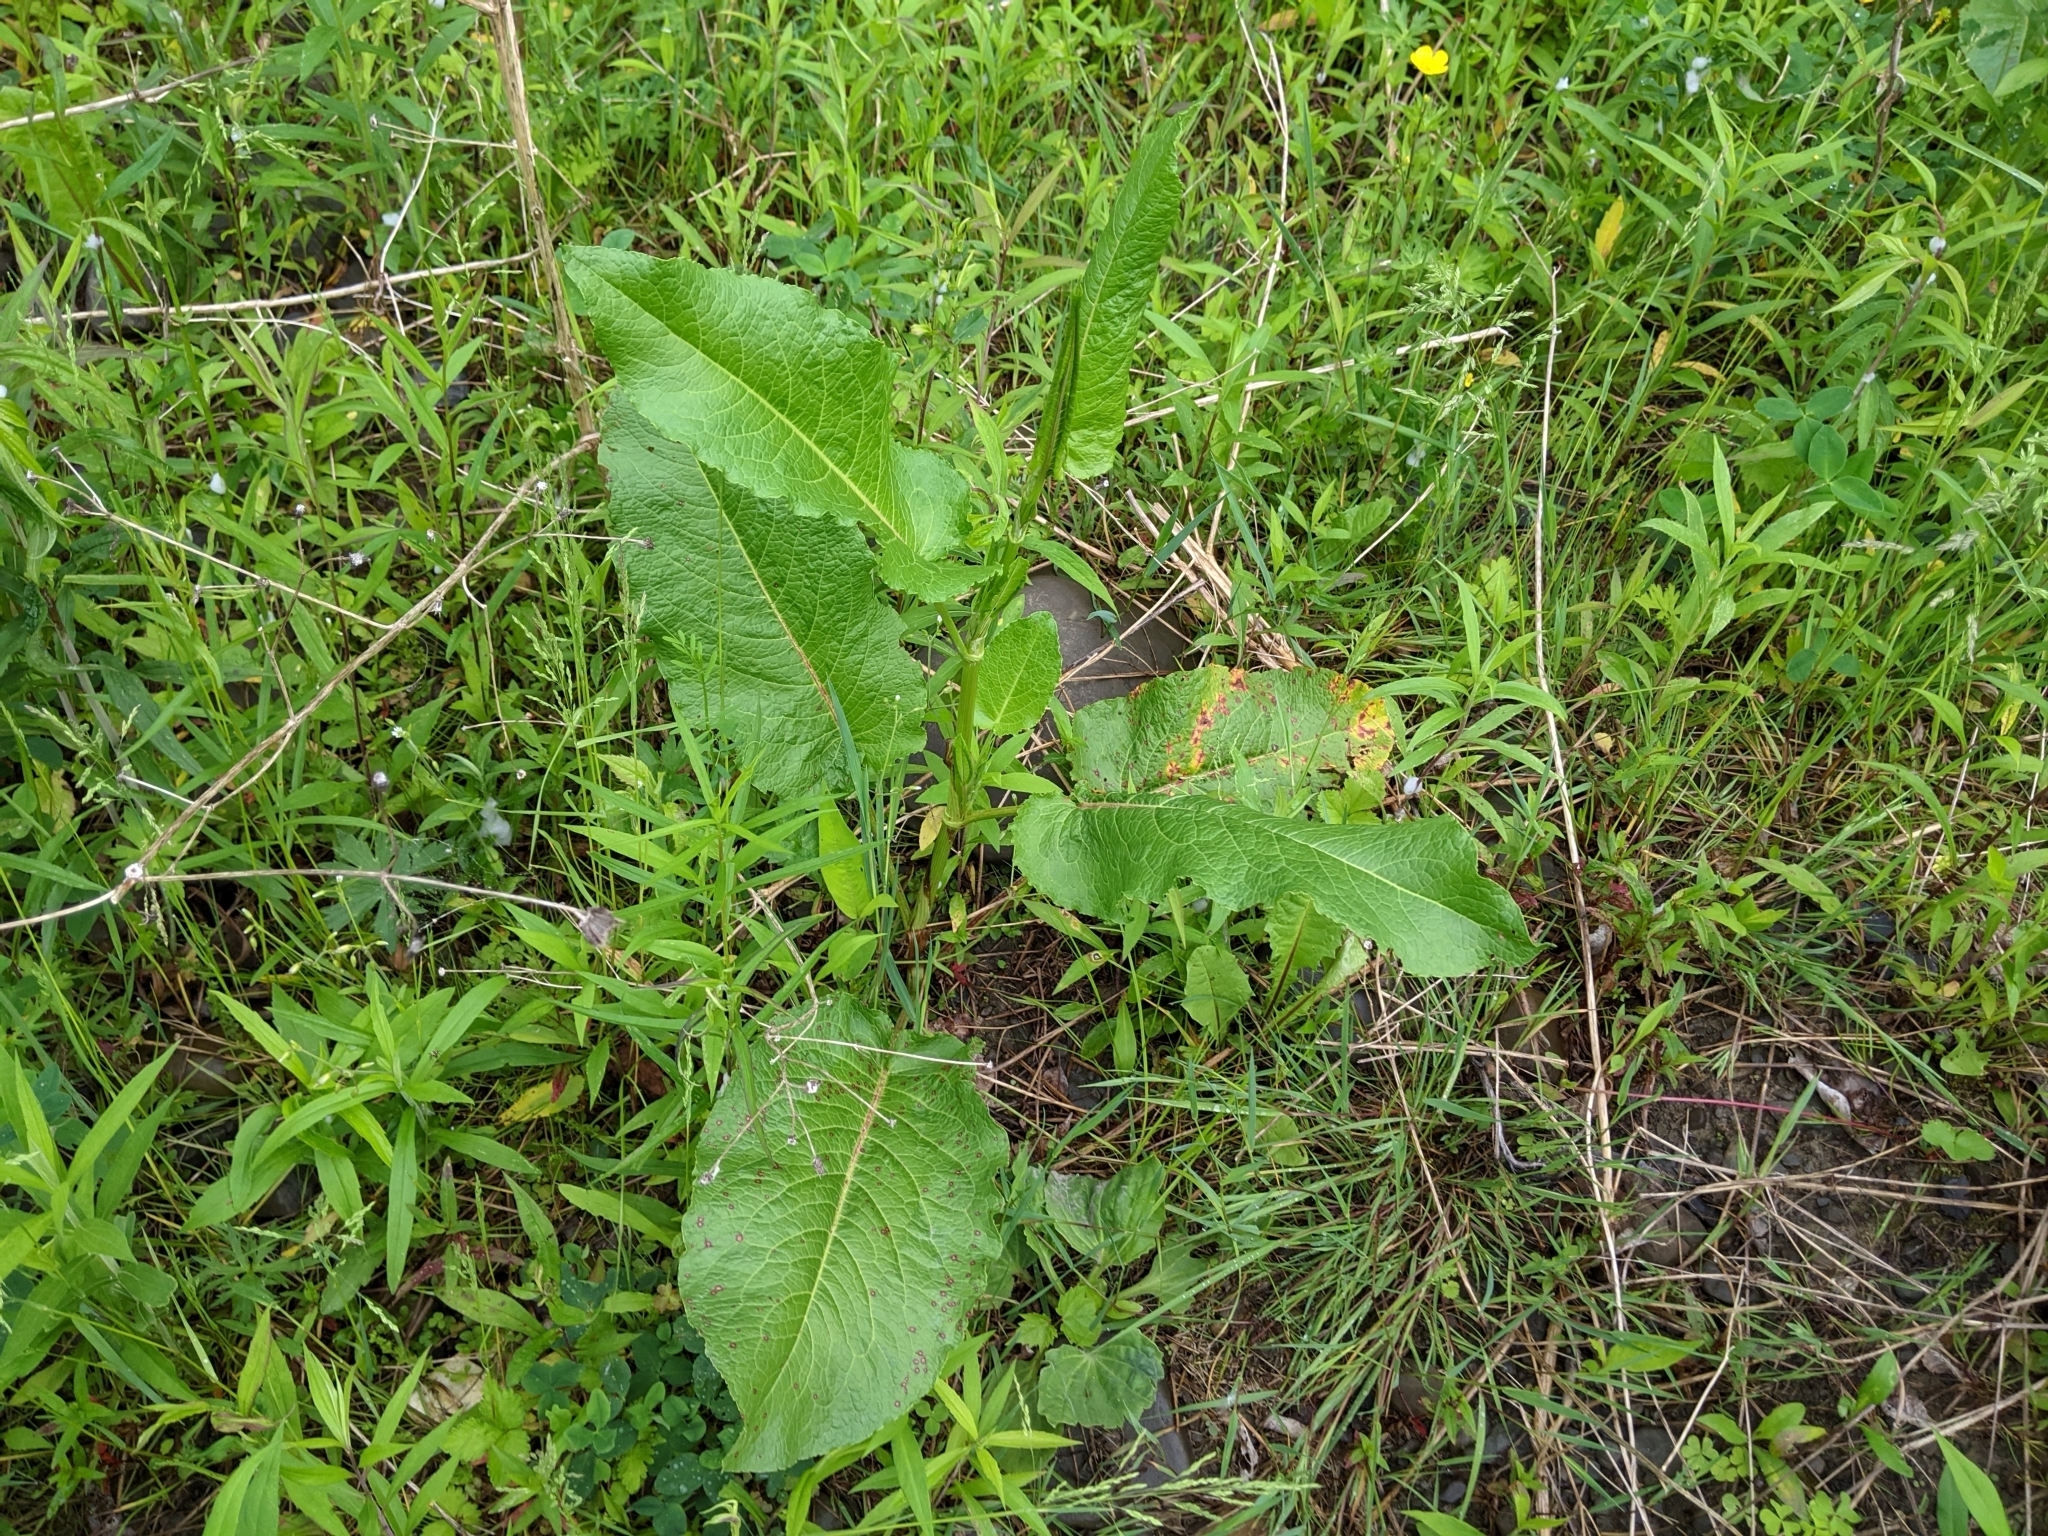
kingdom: Fungi
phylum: Ascomycota
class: Dothideomycetes
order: Mycosphaerellales
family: Mycosphaerellaceae
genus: Ramularia
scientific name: Ramularia rubella
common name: Red dock spot
